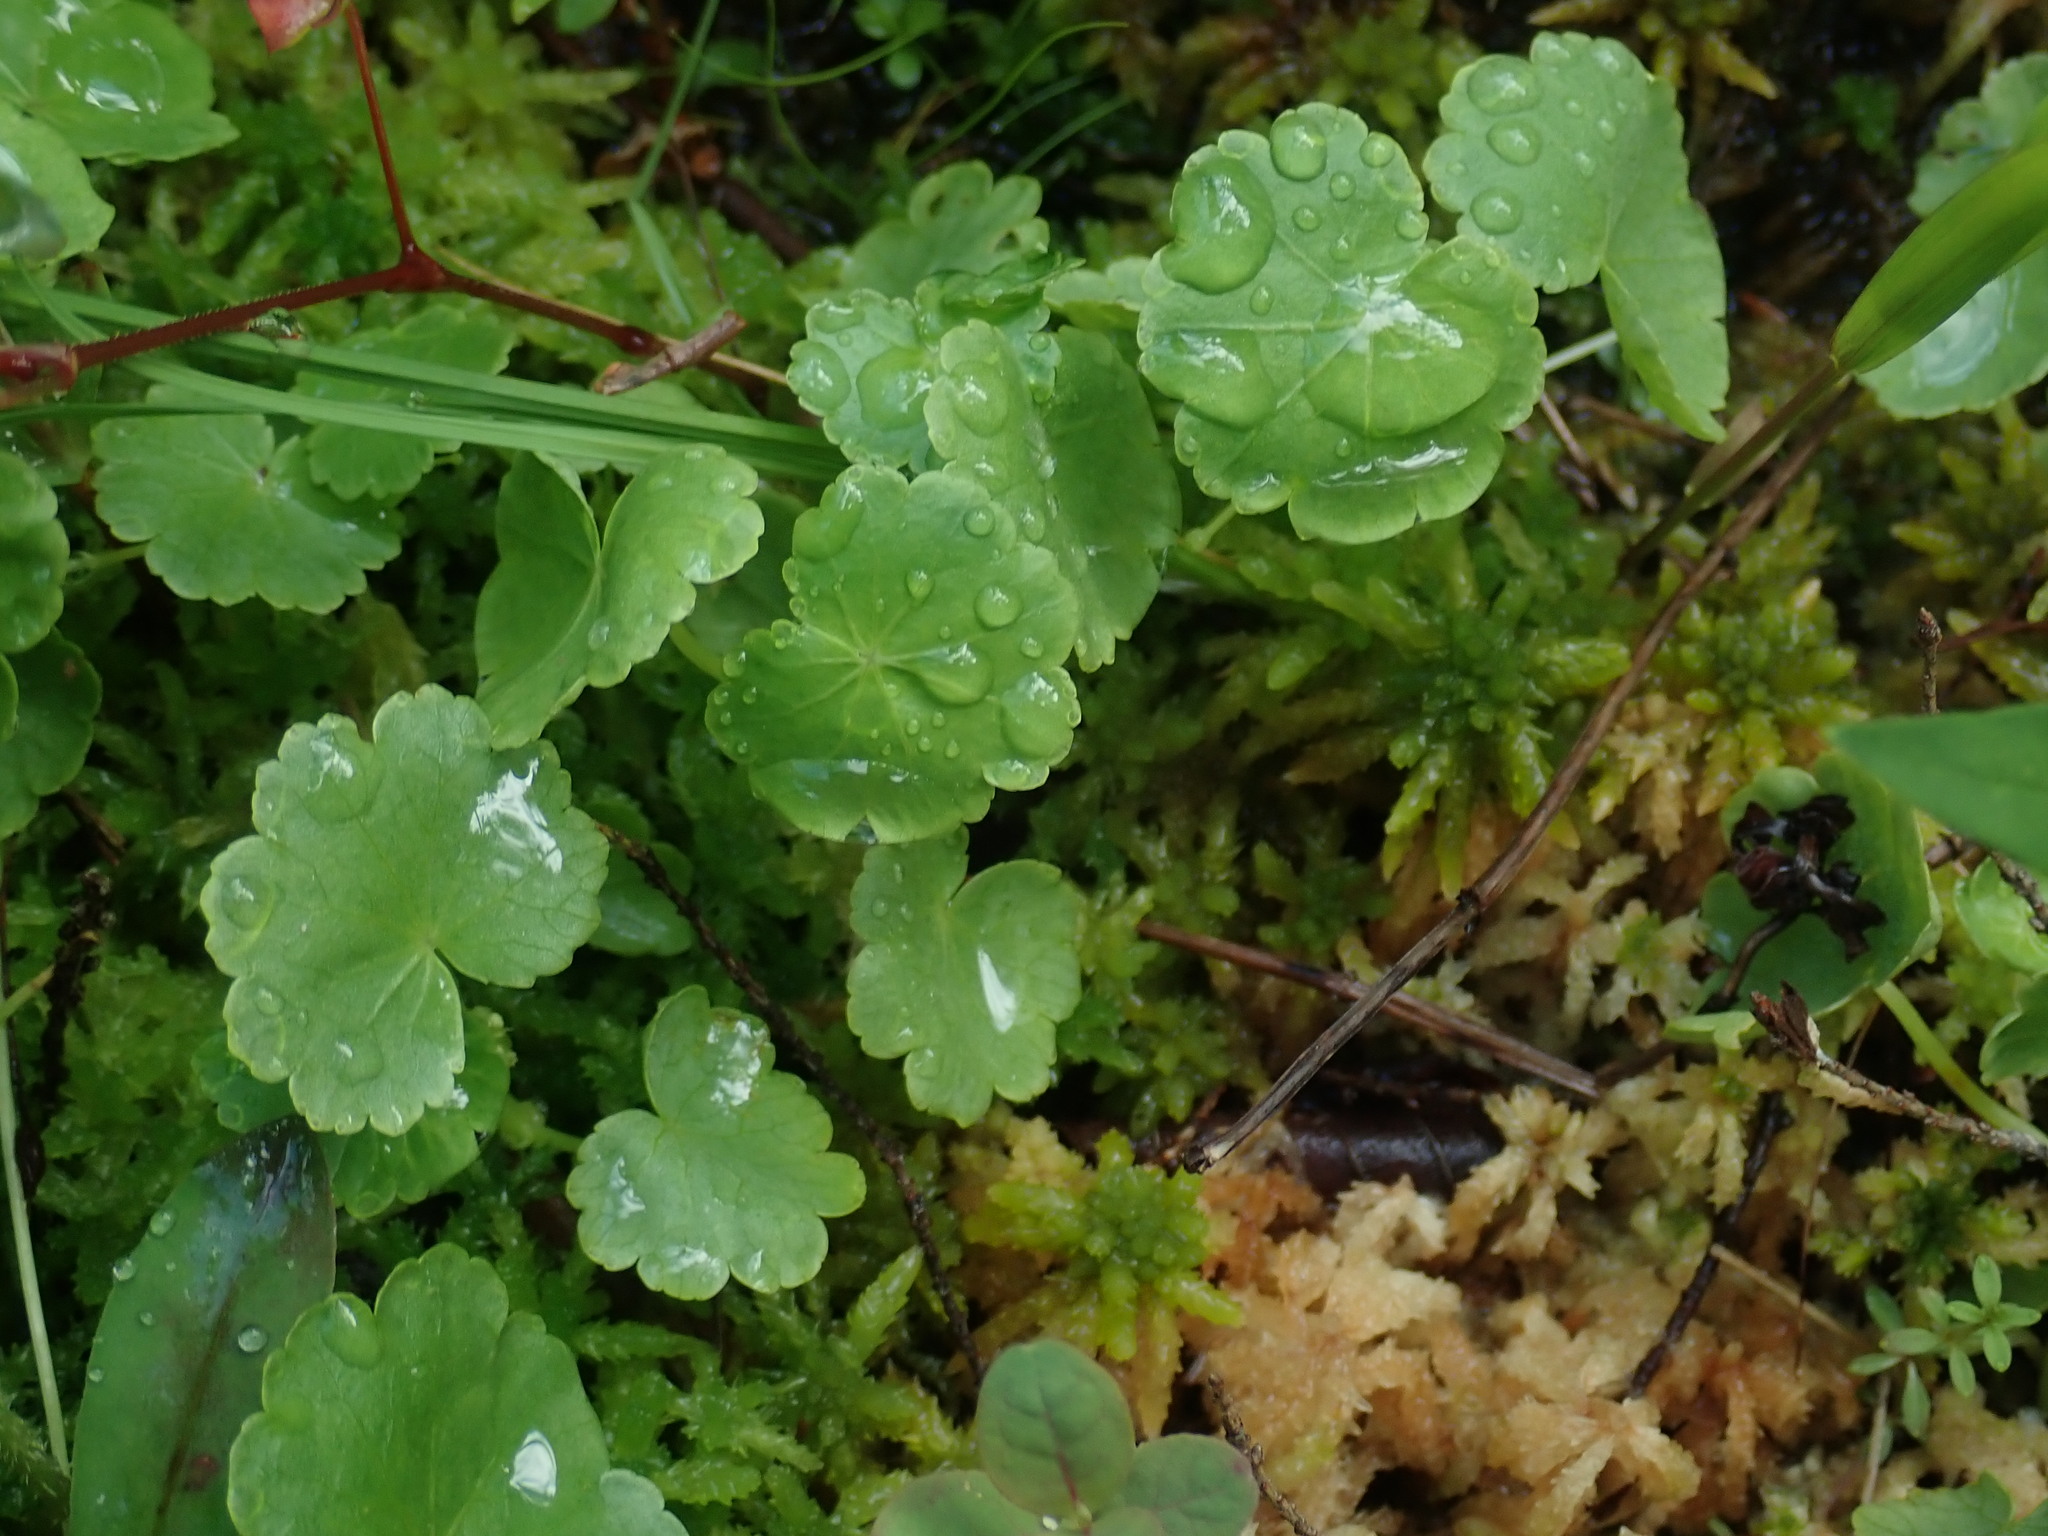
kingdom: Plantae
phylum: Tracheophyta
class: Magnoliopsida
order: Apiales
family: Araliaceae
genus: Hydrocotyle
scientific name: Hydrocotyle americana
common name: American water-pennywort
